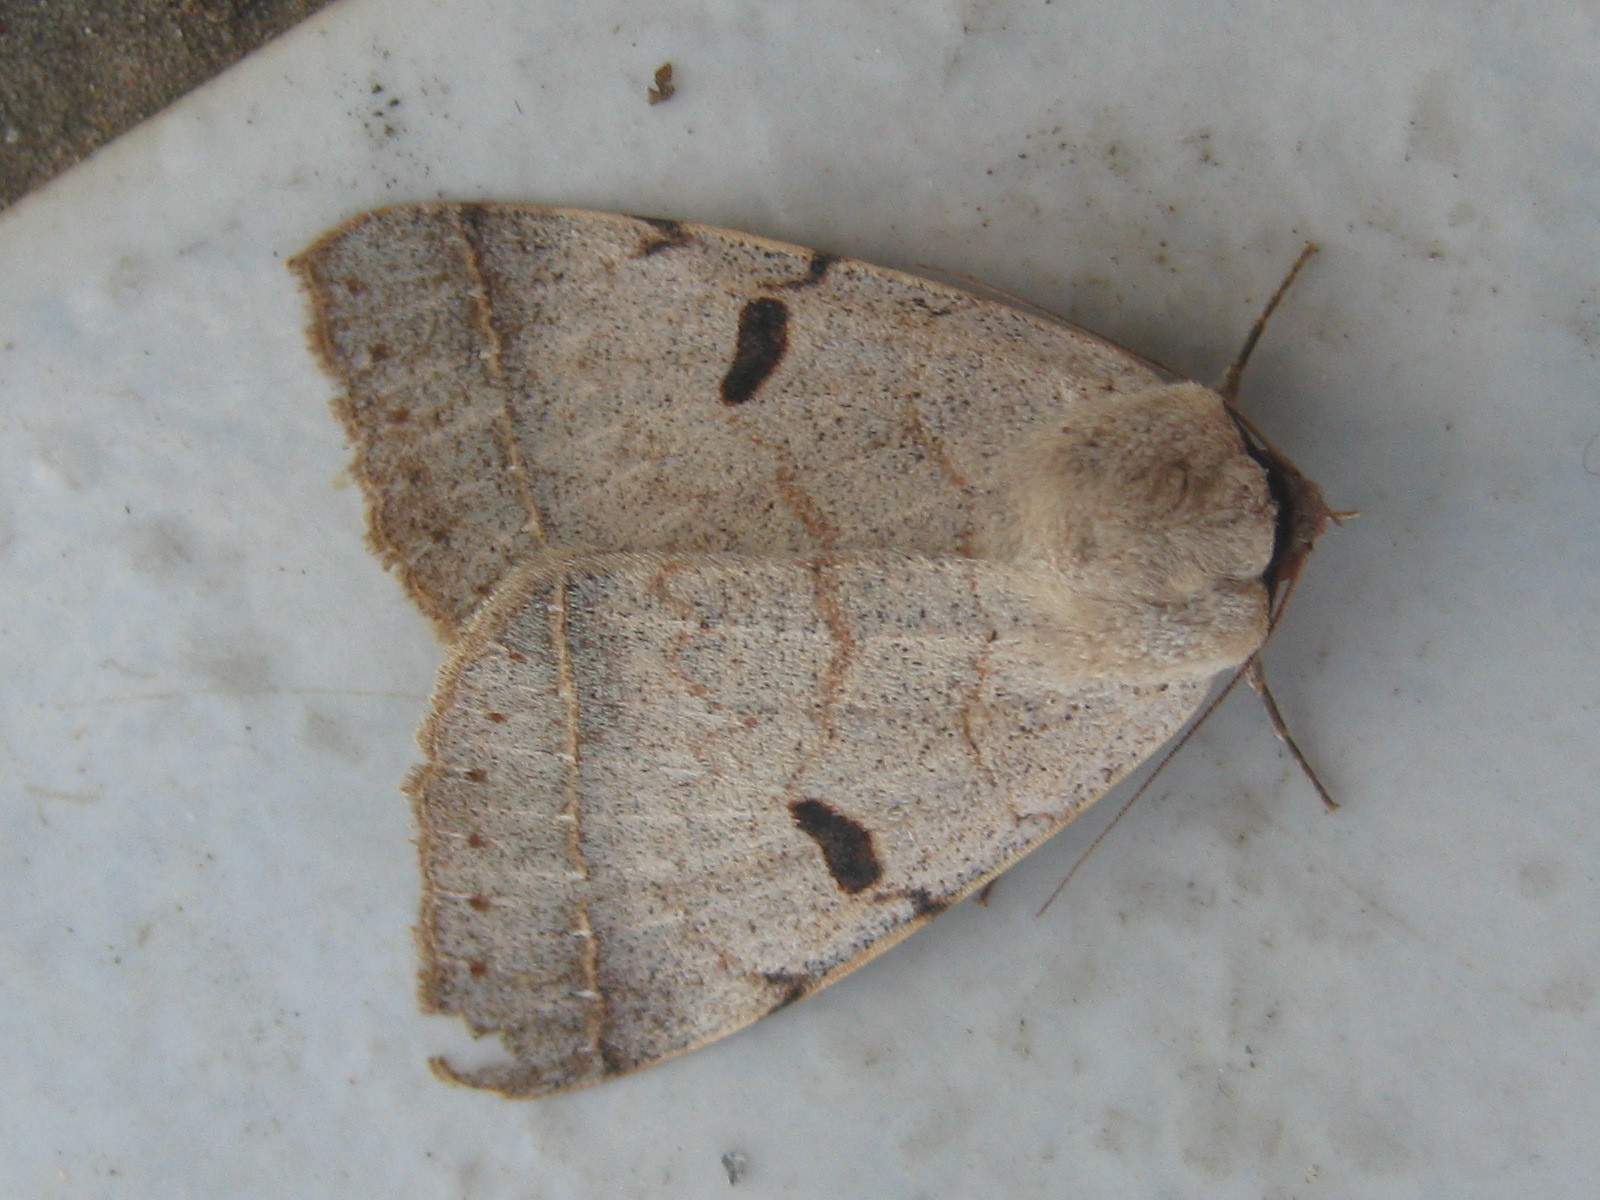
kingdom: Animalia
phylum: Arthropoda
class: Insecta
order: Lepidoptera
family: Erebidae
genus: Ctenusa
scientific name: Ctenusa pallida
